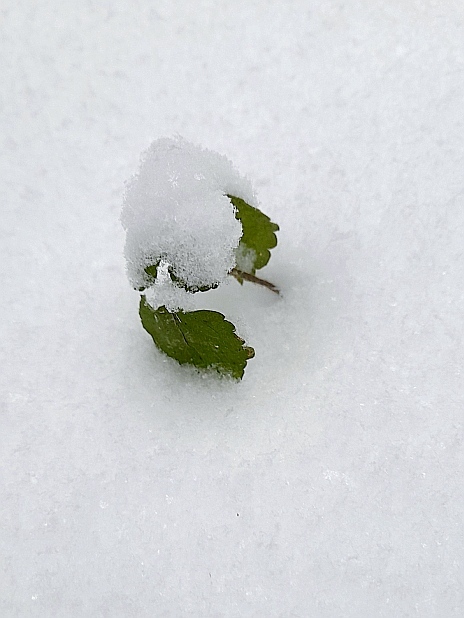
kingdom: Plantae
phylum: Tracheophyta
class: Magnoliopsida
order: Lamiales
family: Lamiaceae
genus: Lamium
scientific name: Lamium galeobdolon
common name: Yellow archangel
